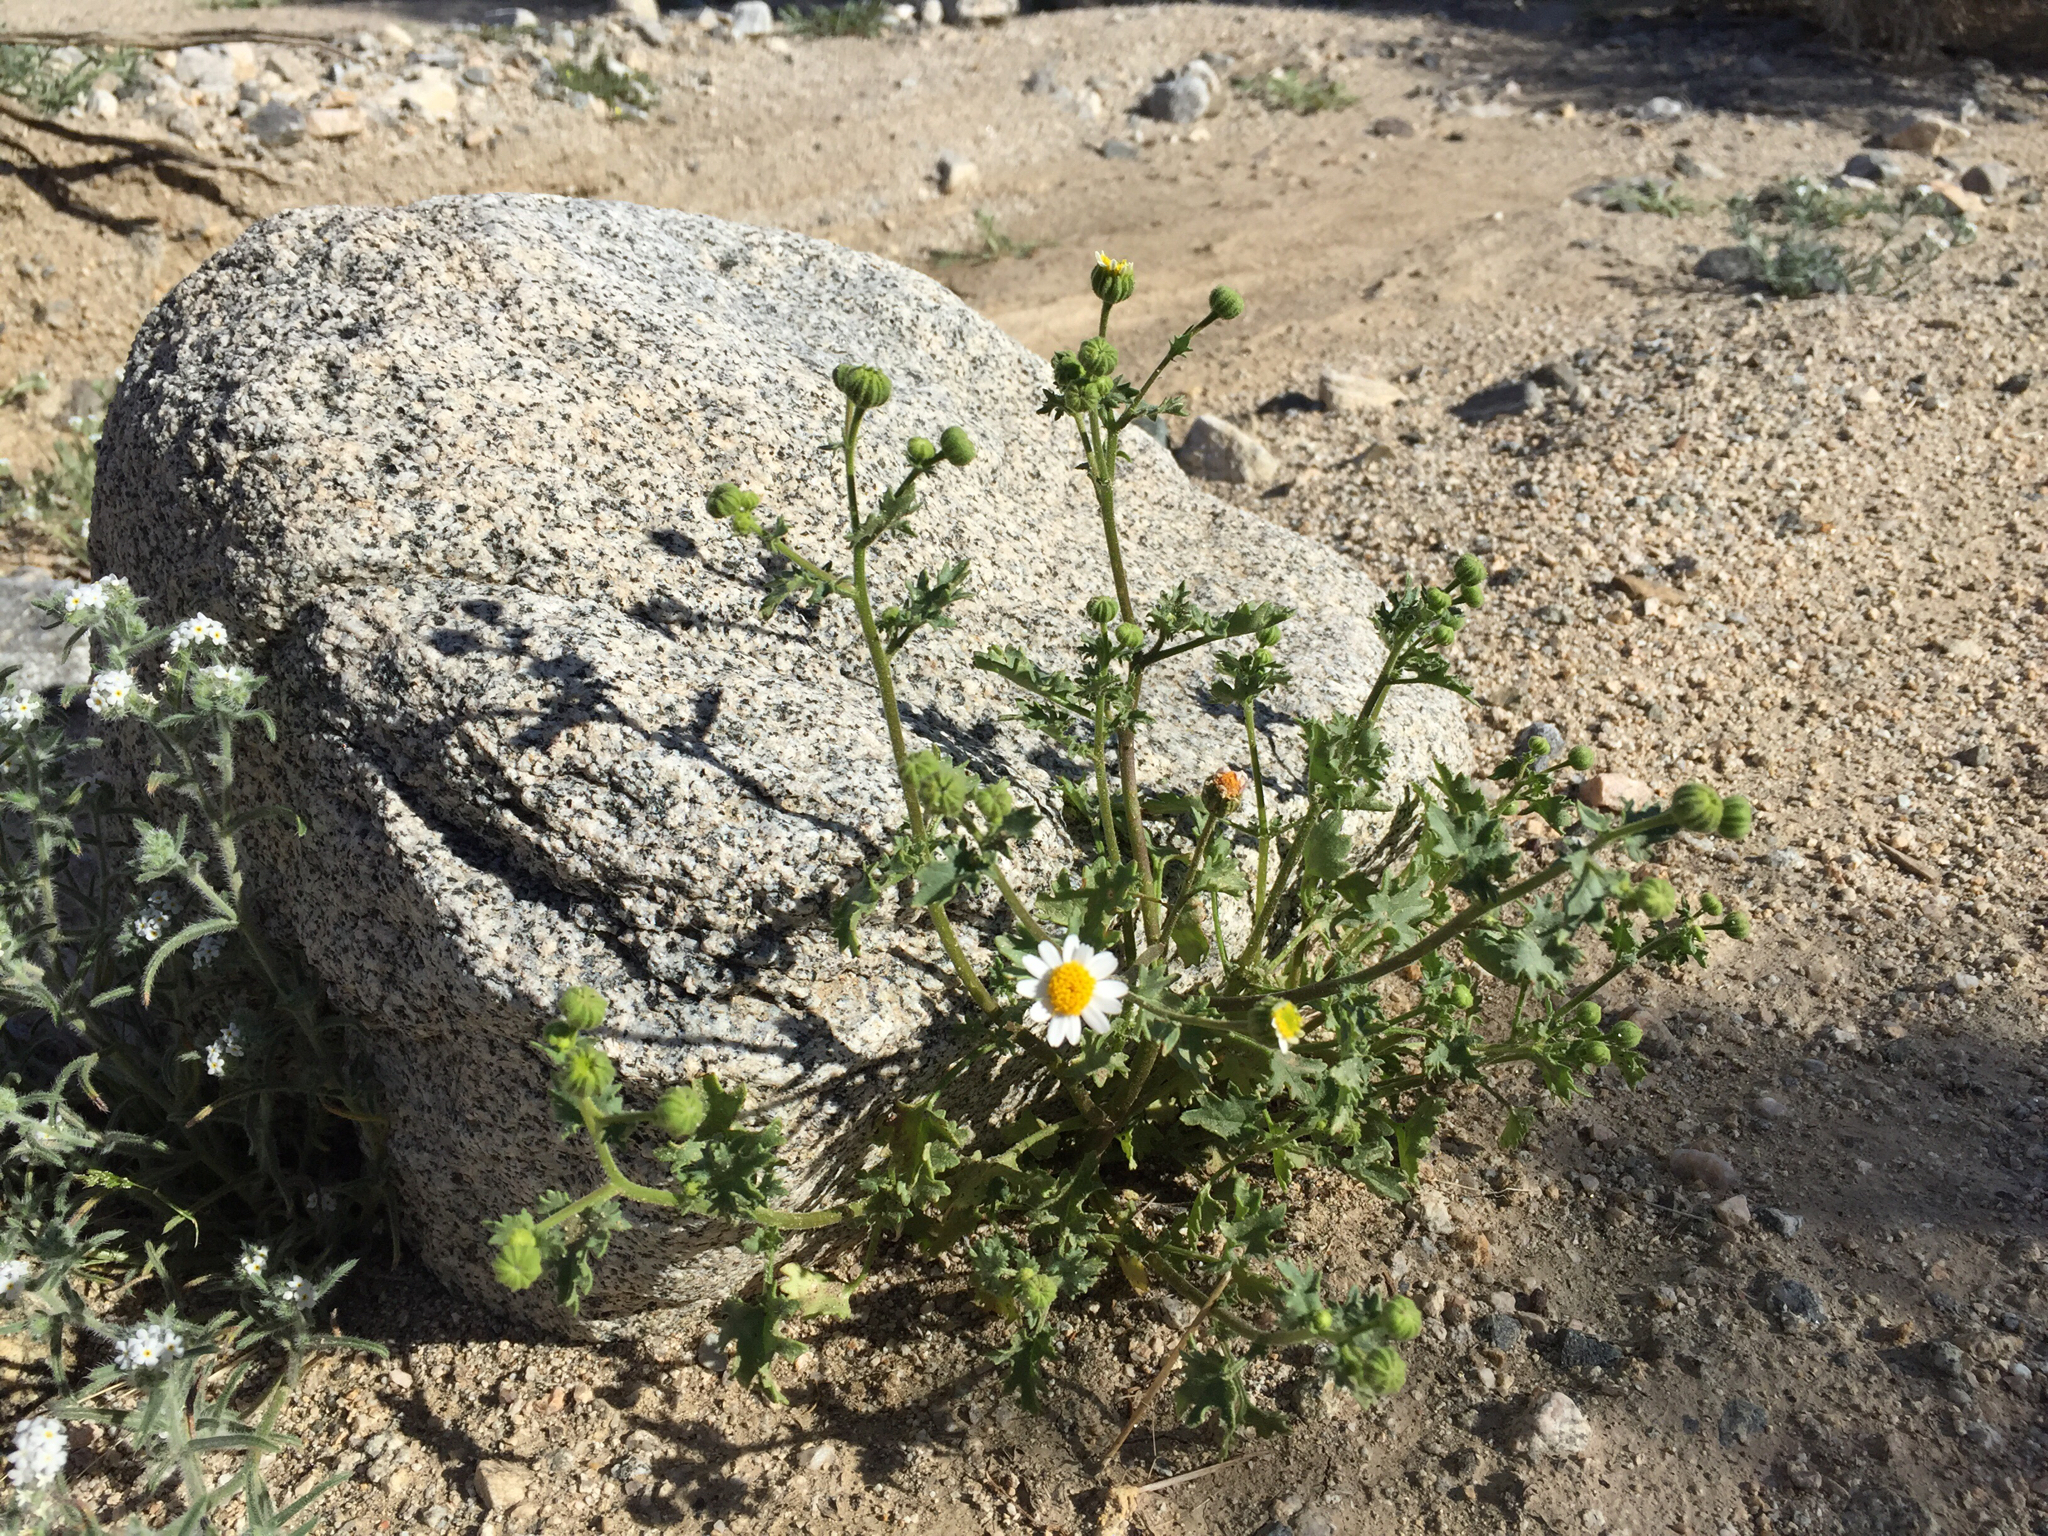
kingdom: Plantae
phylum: Tracheophyta
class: Magnoliopsida
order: Asterales
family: Asteraceae
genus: Laphamia
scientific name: Laphamia emoryi
